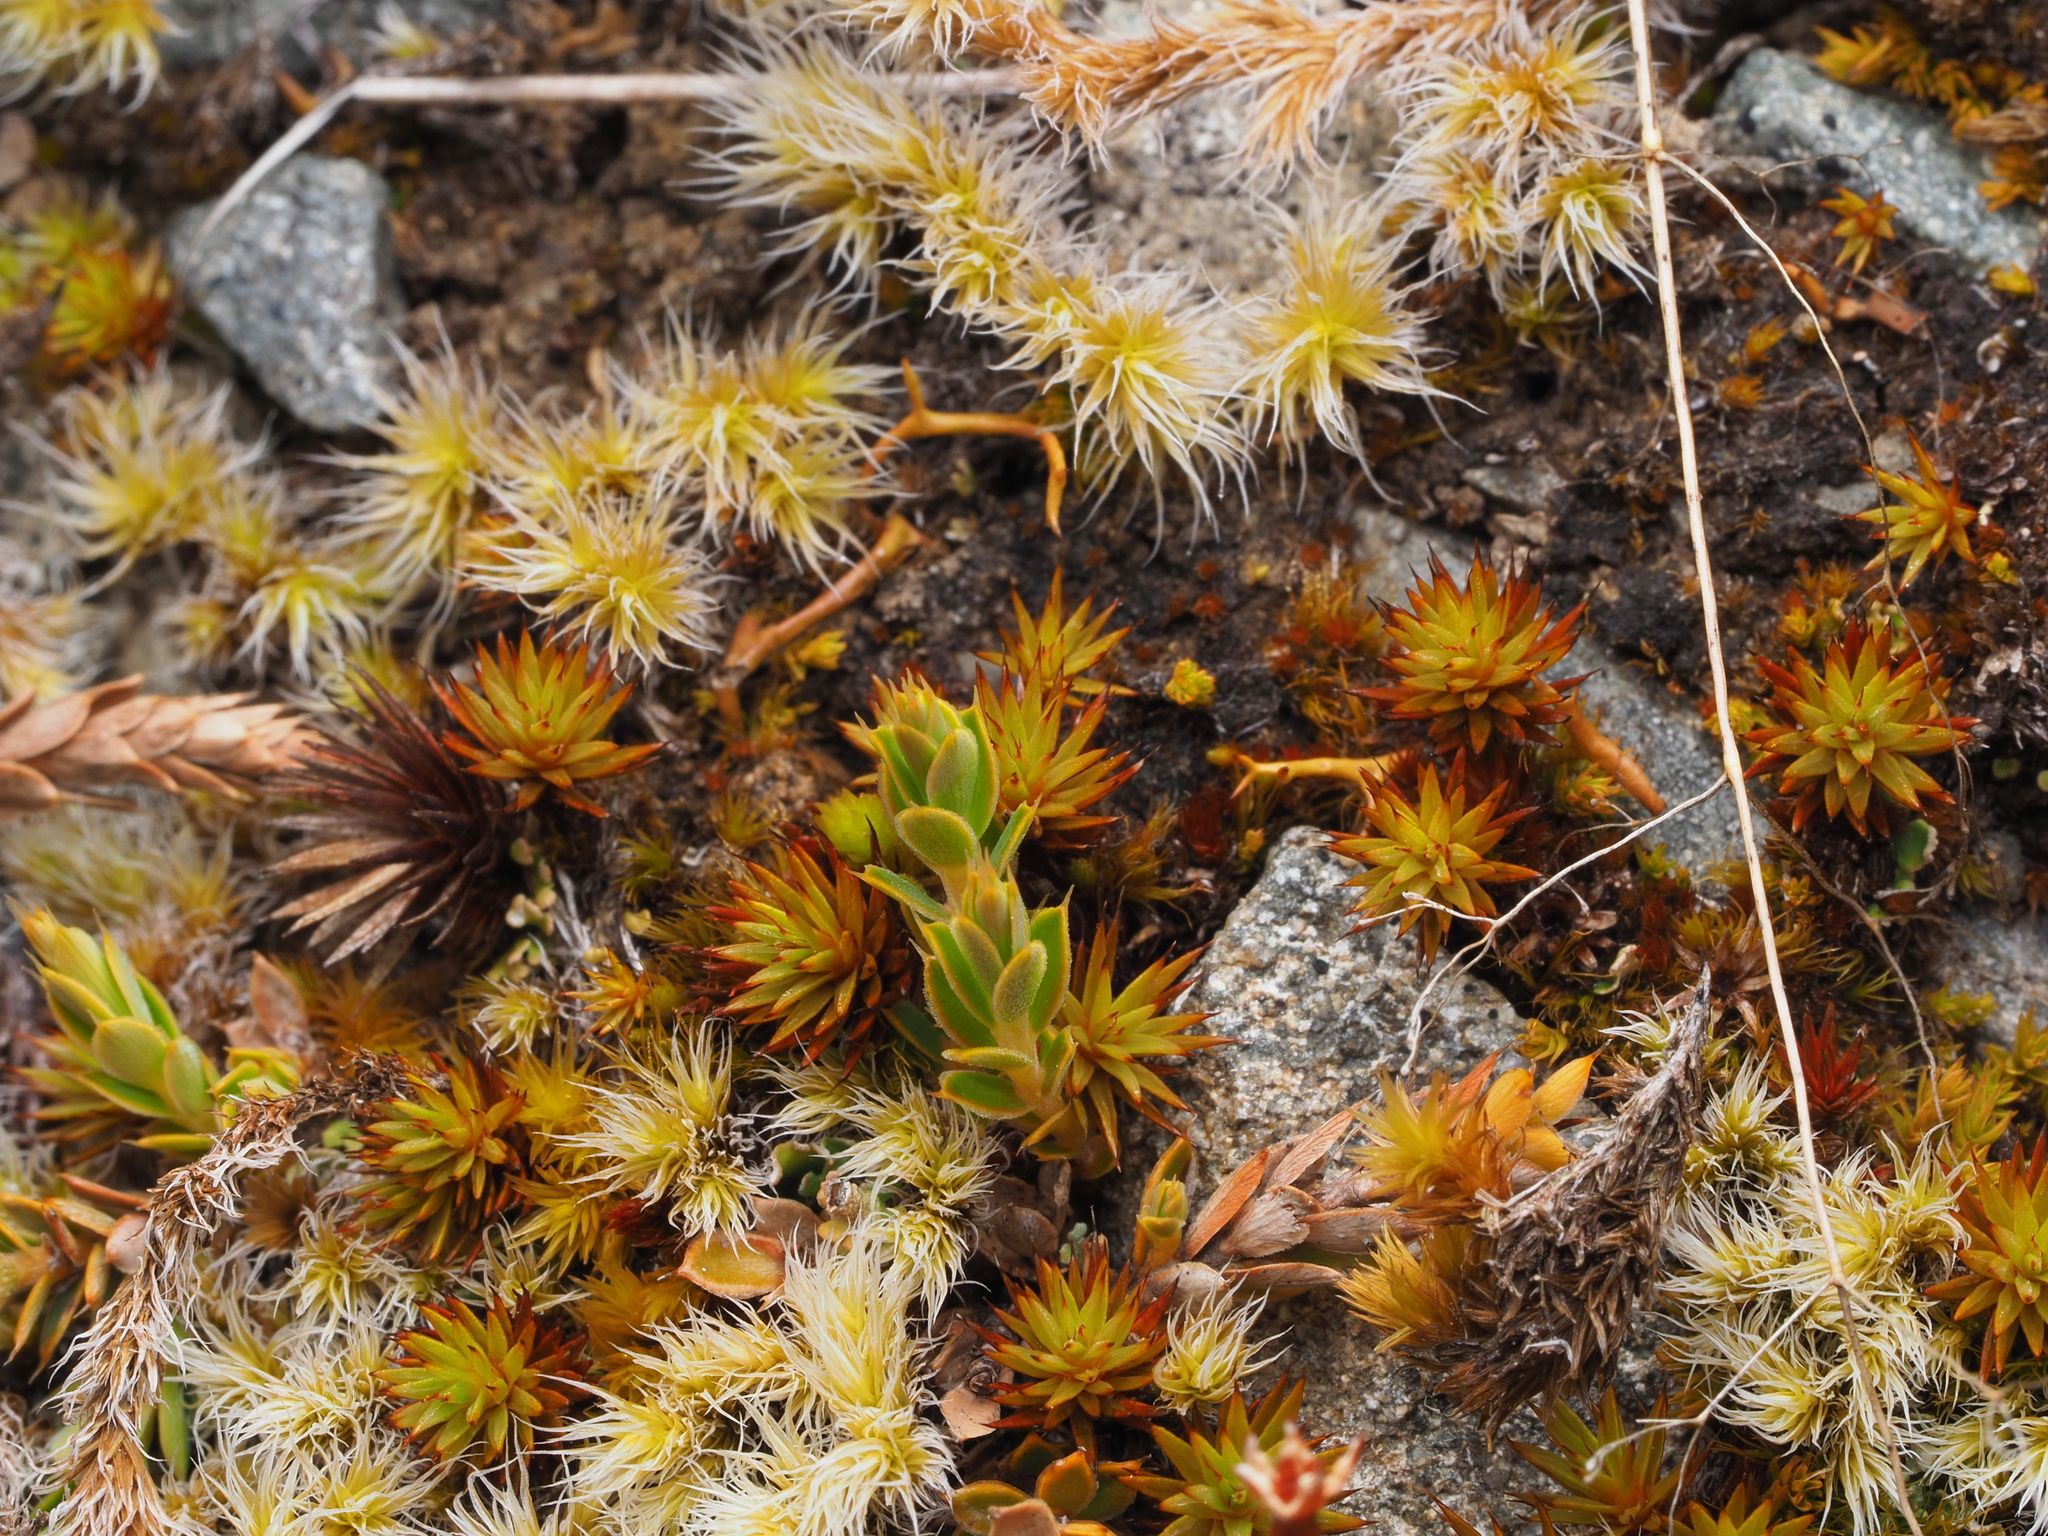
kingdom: Plantae
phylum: Bryophyta
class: Polytrichopsida
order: Polytrichales
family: Polytrichaceae
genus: Polytrichum
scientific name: Polytrichum juniperinum
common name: Juniper haircap moss
